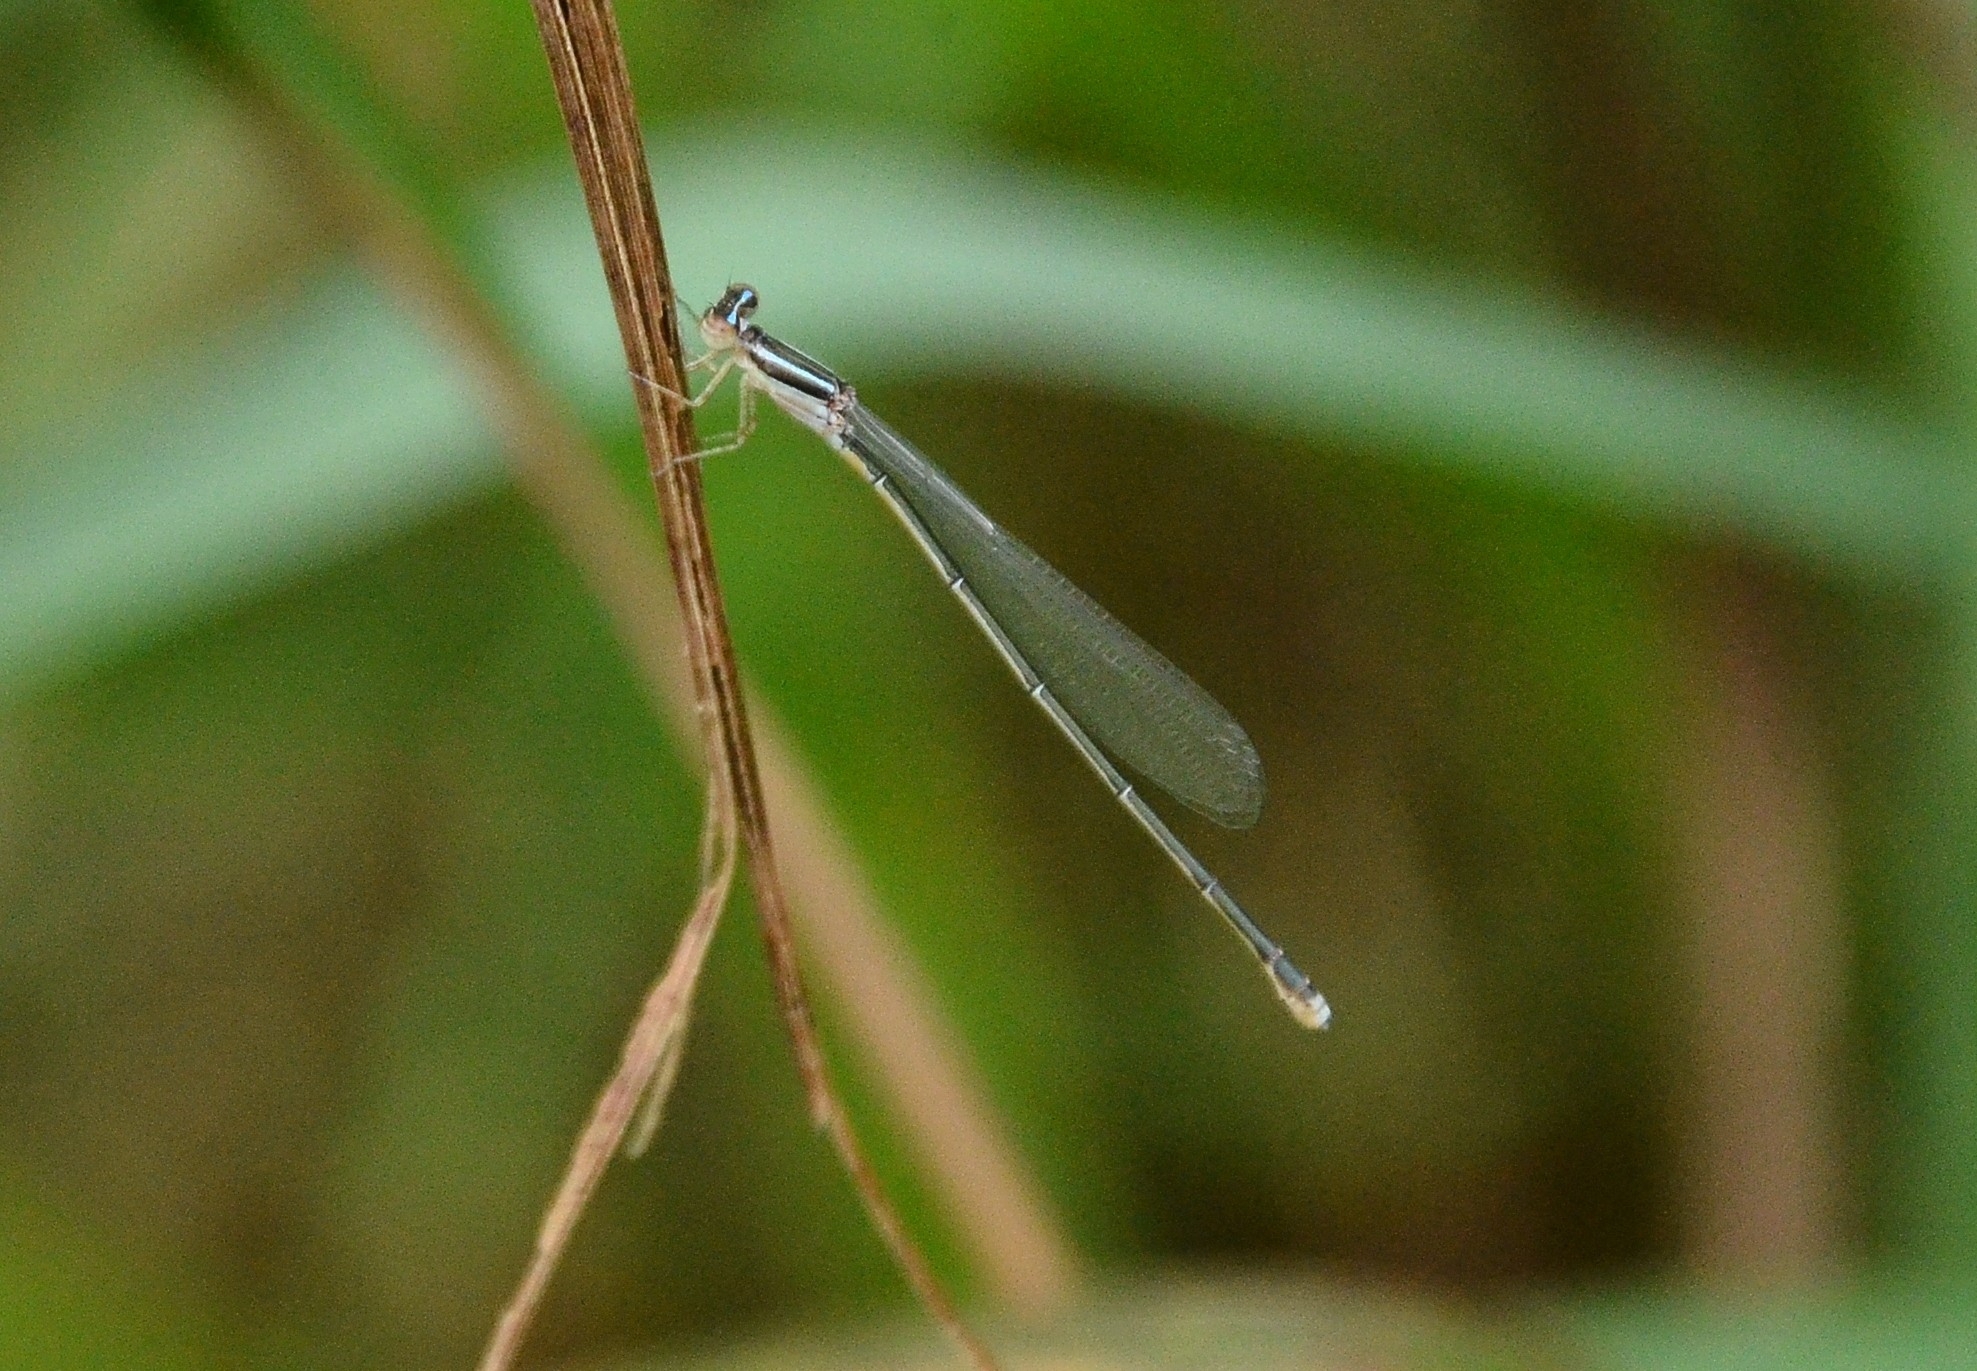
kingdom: Animalia
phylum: Arthropoda
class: Insecta
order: Odonata
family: Coenagrionidae
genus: Aciagrion
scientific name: Aciagrion occidentale
